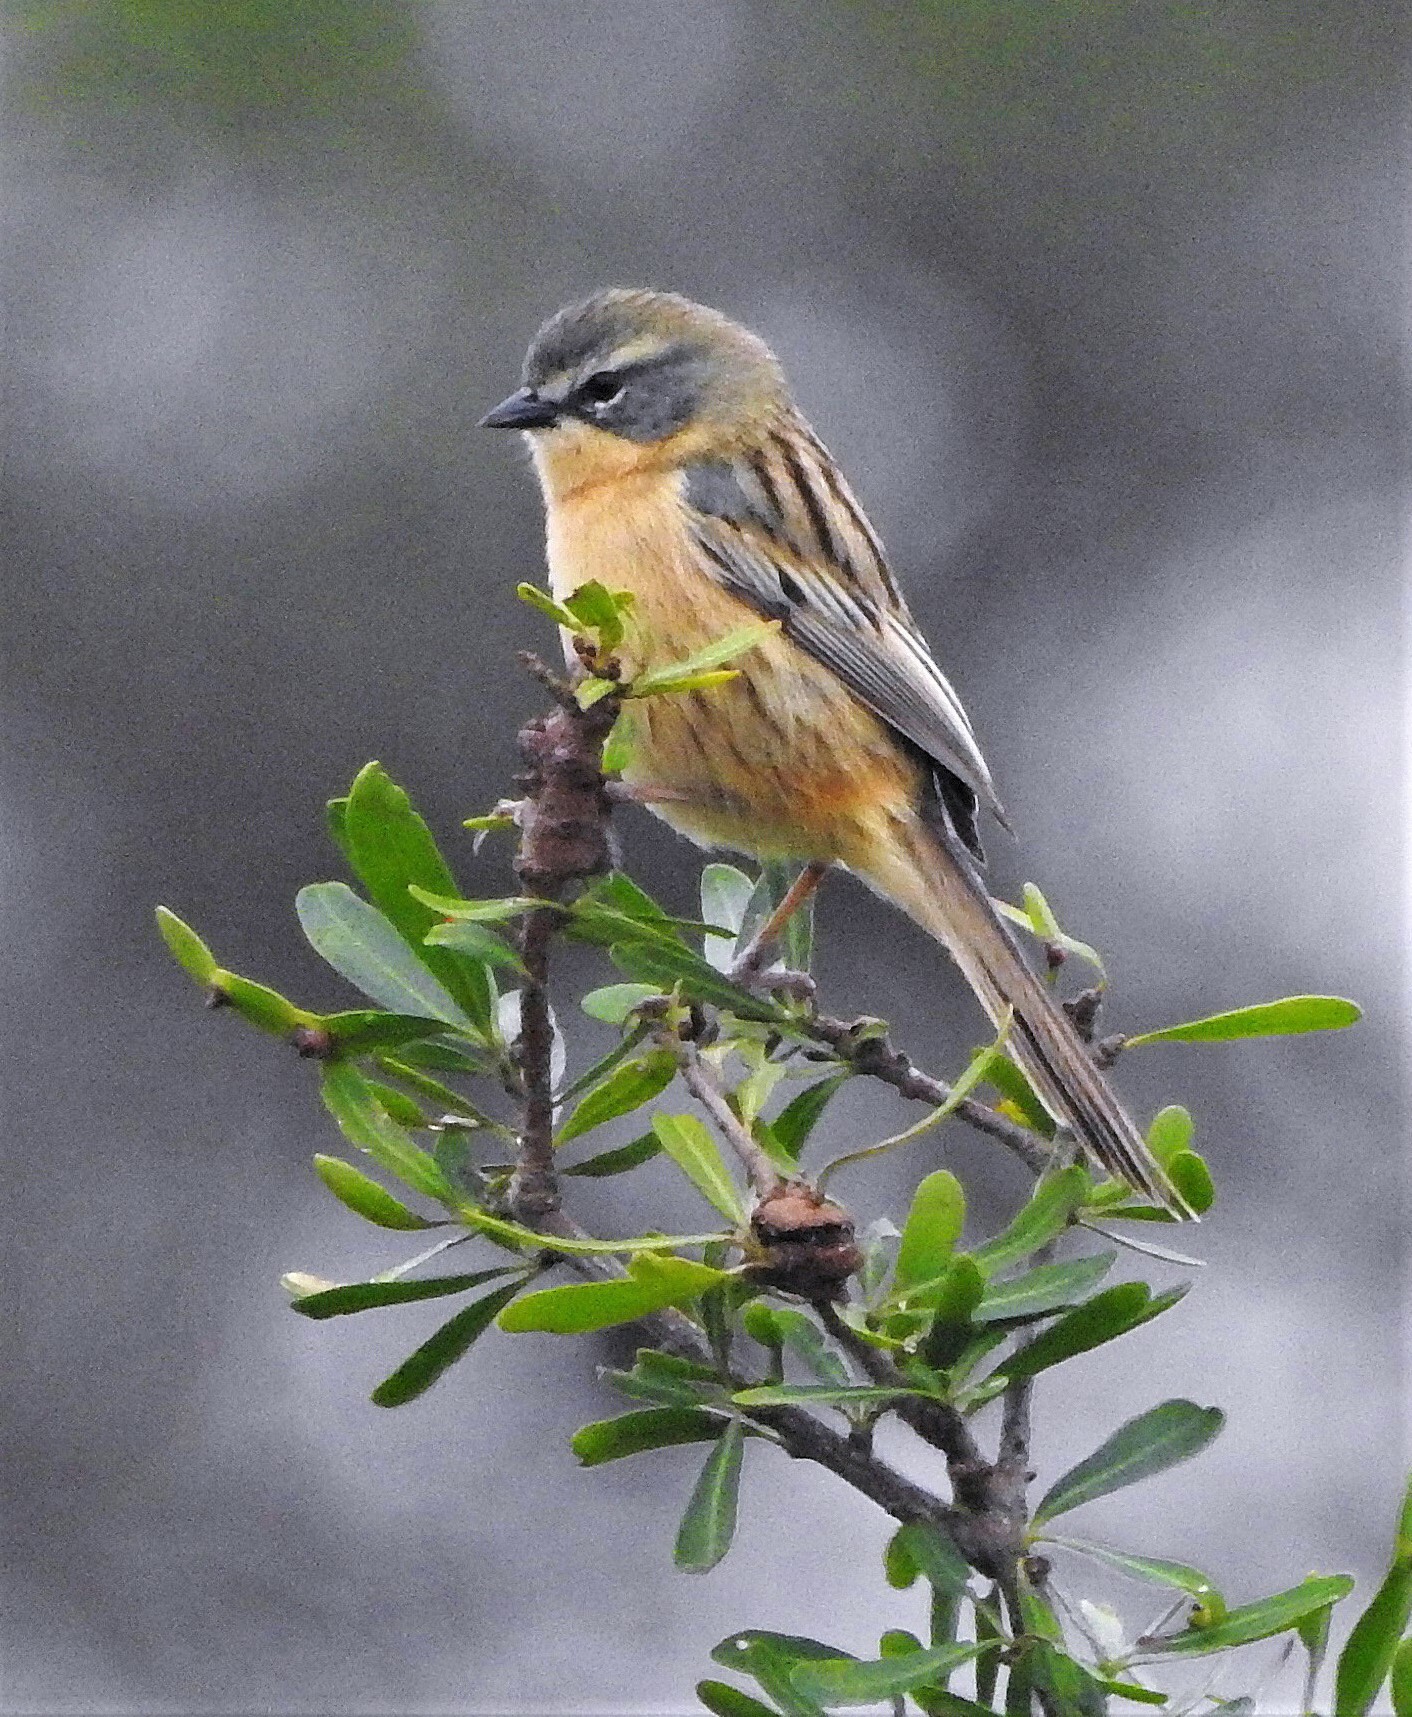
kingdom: Animalia
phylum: Chordata
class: Aves
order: Passeriformes
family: Thraupidae
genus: Donacospiza
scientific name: Donacospiza albifrons
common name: Long-tailed reed finch
